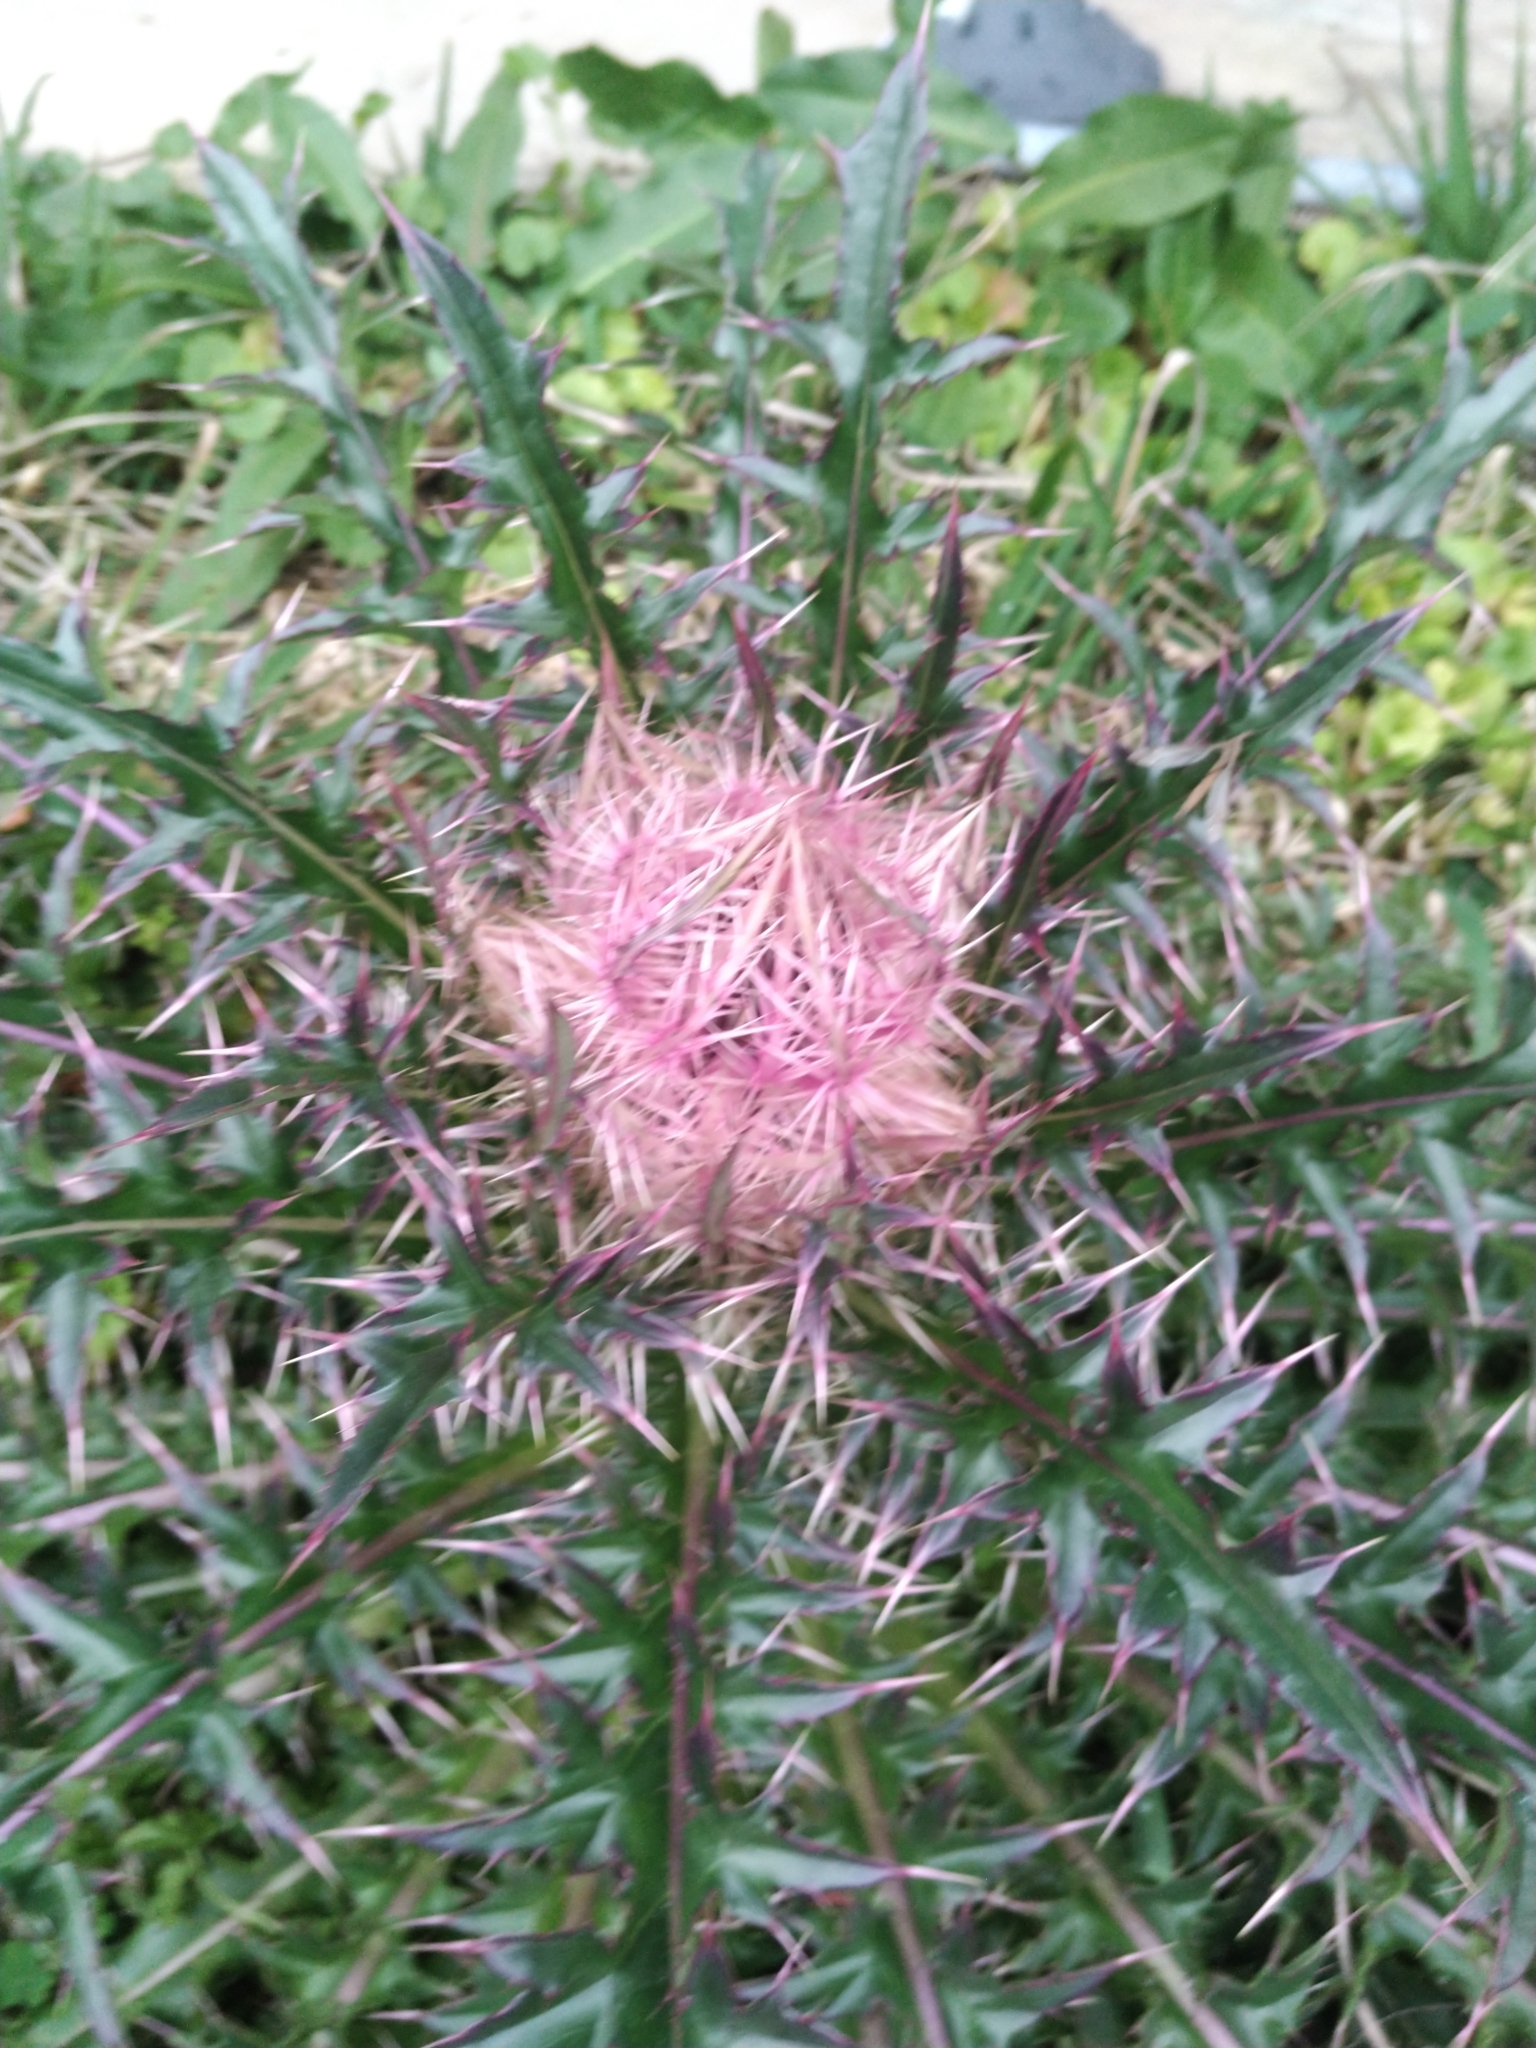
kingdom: Plantae
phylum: Tracheophyta
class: Magnoliopsida
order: Asterales
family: Asteraceae
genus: Cirsium
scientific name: Cirsium horridulum
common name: Bristly thistle
